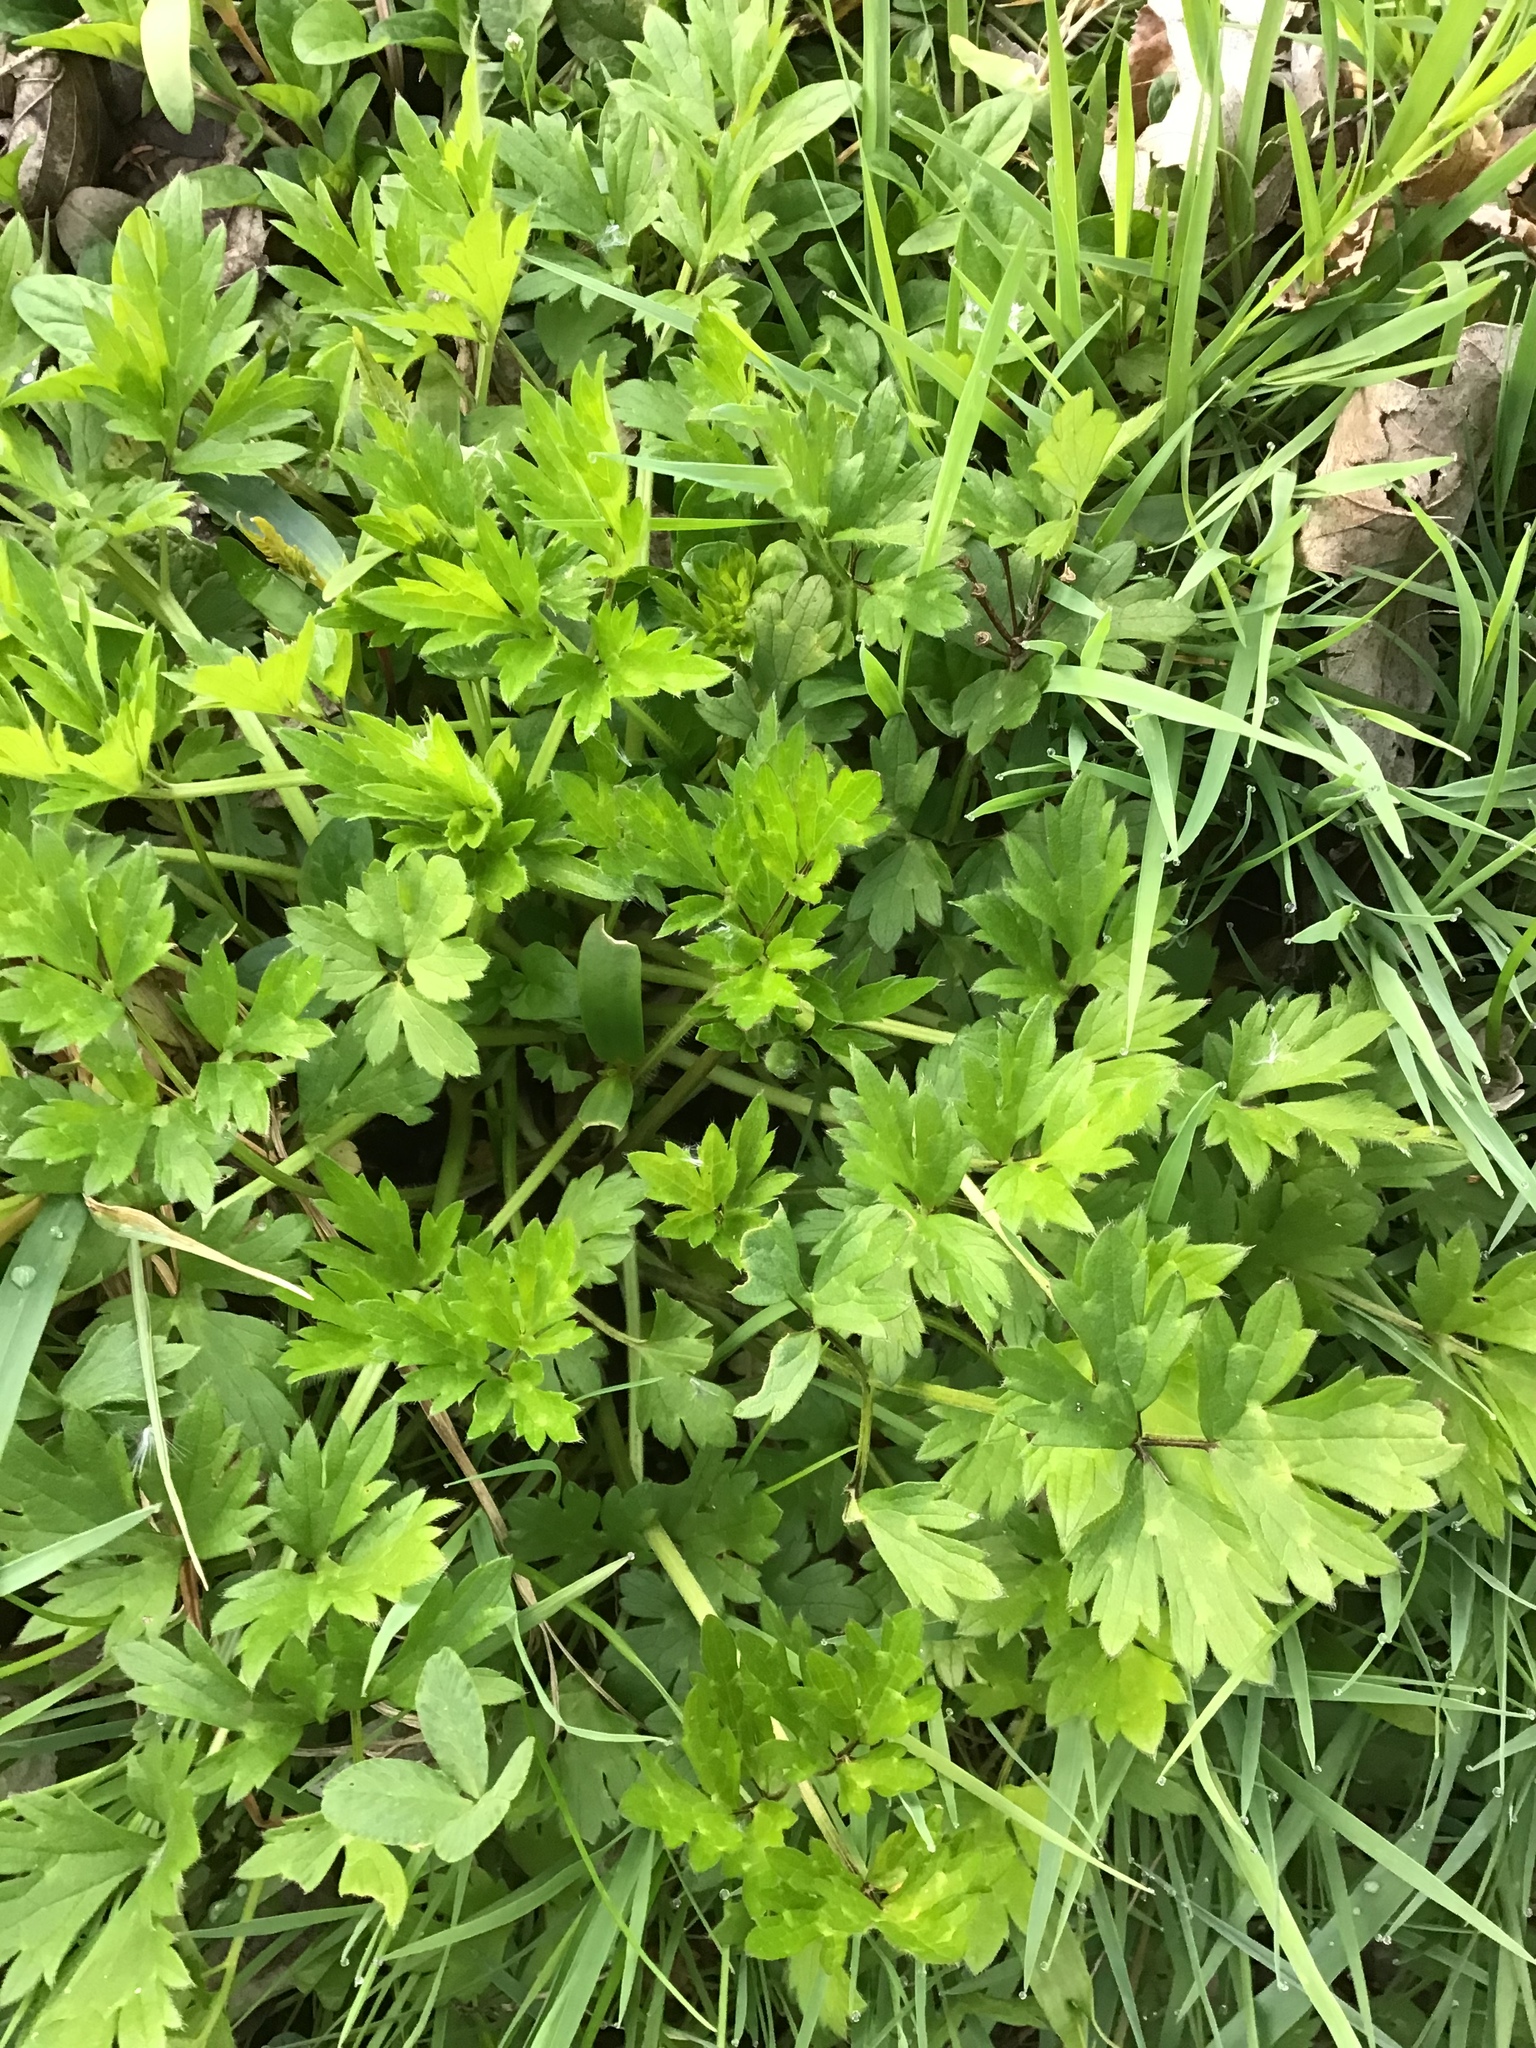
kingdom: Plantae
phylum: Tracheophyta
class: Magnoliopsida
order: Ranunculales
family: Ranunculaceae
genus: Ranunculus
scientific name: Ranunculus repens
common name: Creeping buttercup
